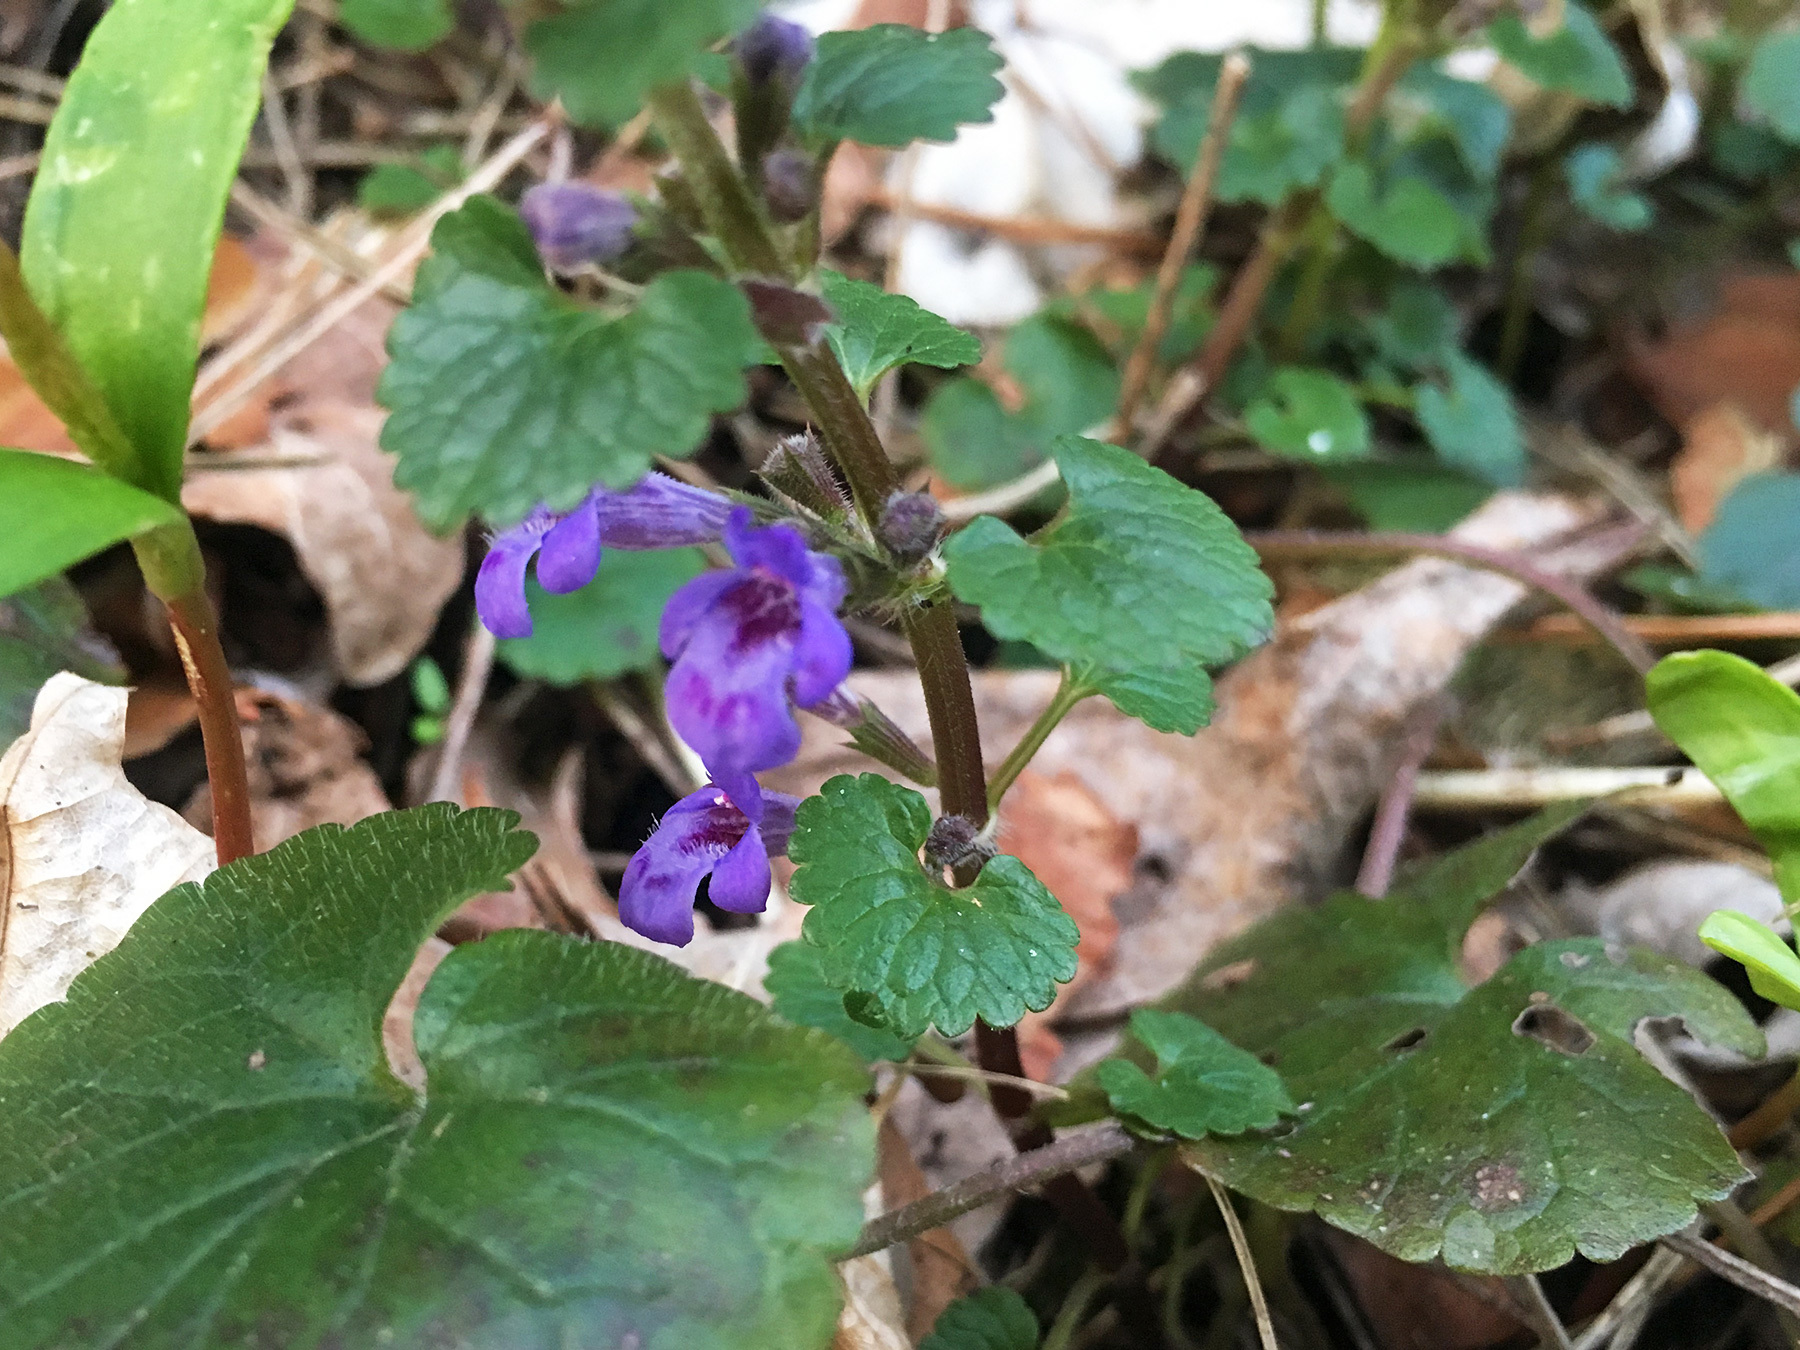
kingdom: Plantae
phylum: Tracheophyta
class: Magnoliopsida
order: Lamiales
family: Lamiaceae
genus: Glechoma
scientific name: Glechoma hederacea
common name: Ground ivy
